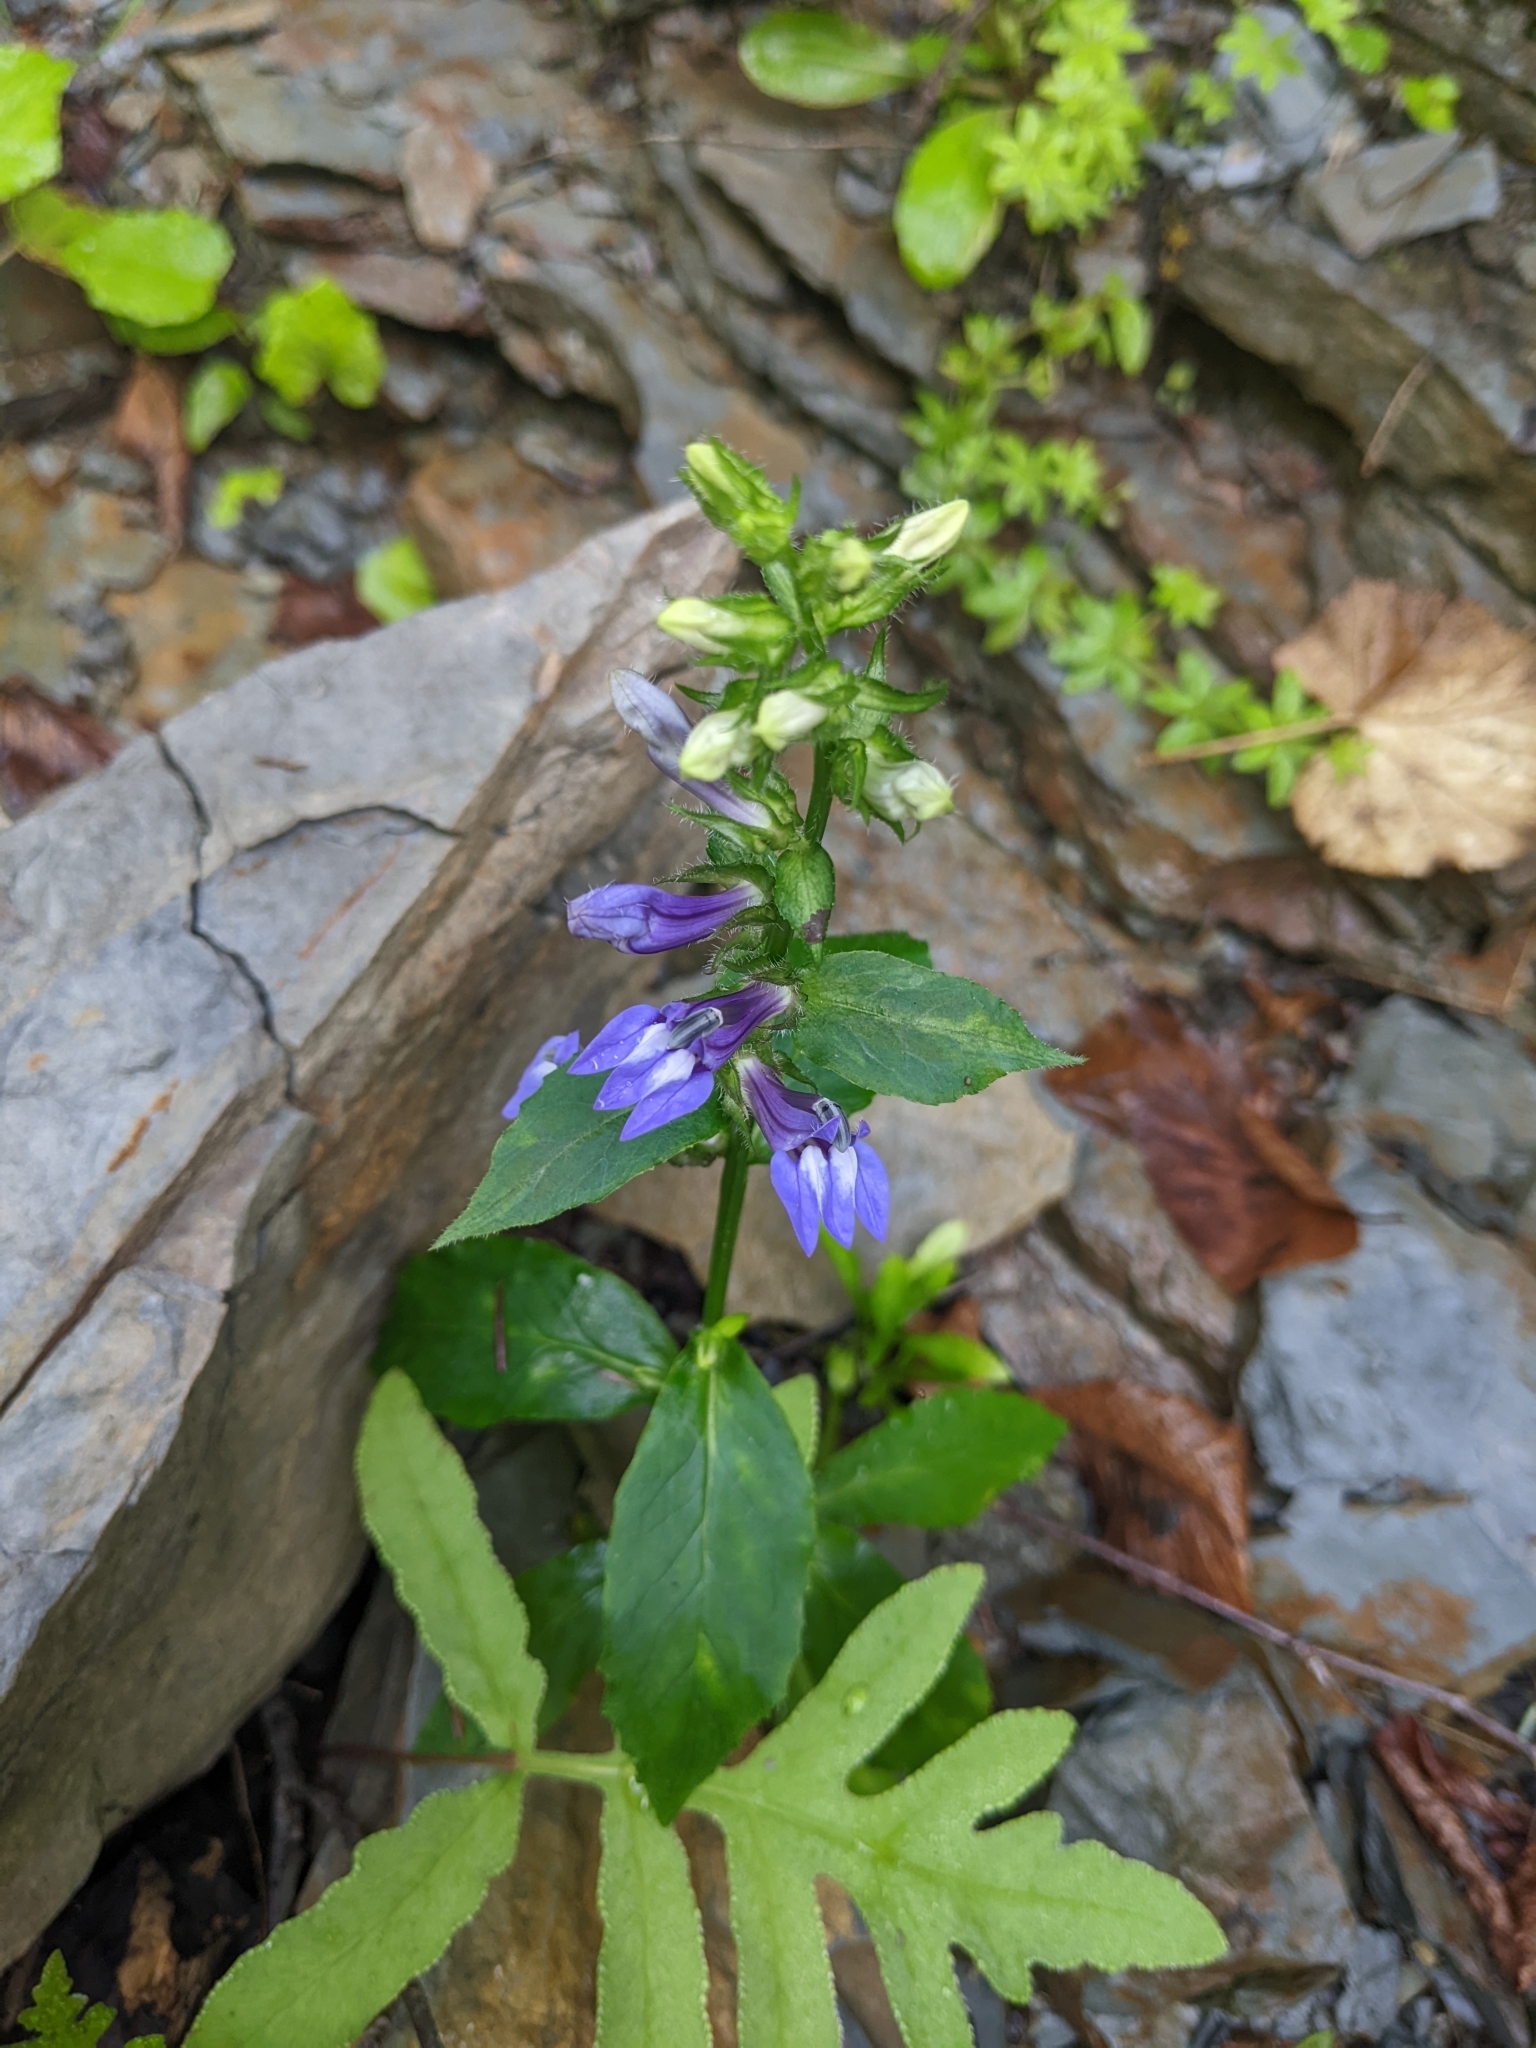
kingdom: Plantae
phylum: Tracheophyta
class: Magnoliopsida
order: Asterales
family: Campanulaceae
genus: Lobelia
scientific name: Lobelia siphilitica
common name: Great lobelia
